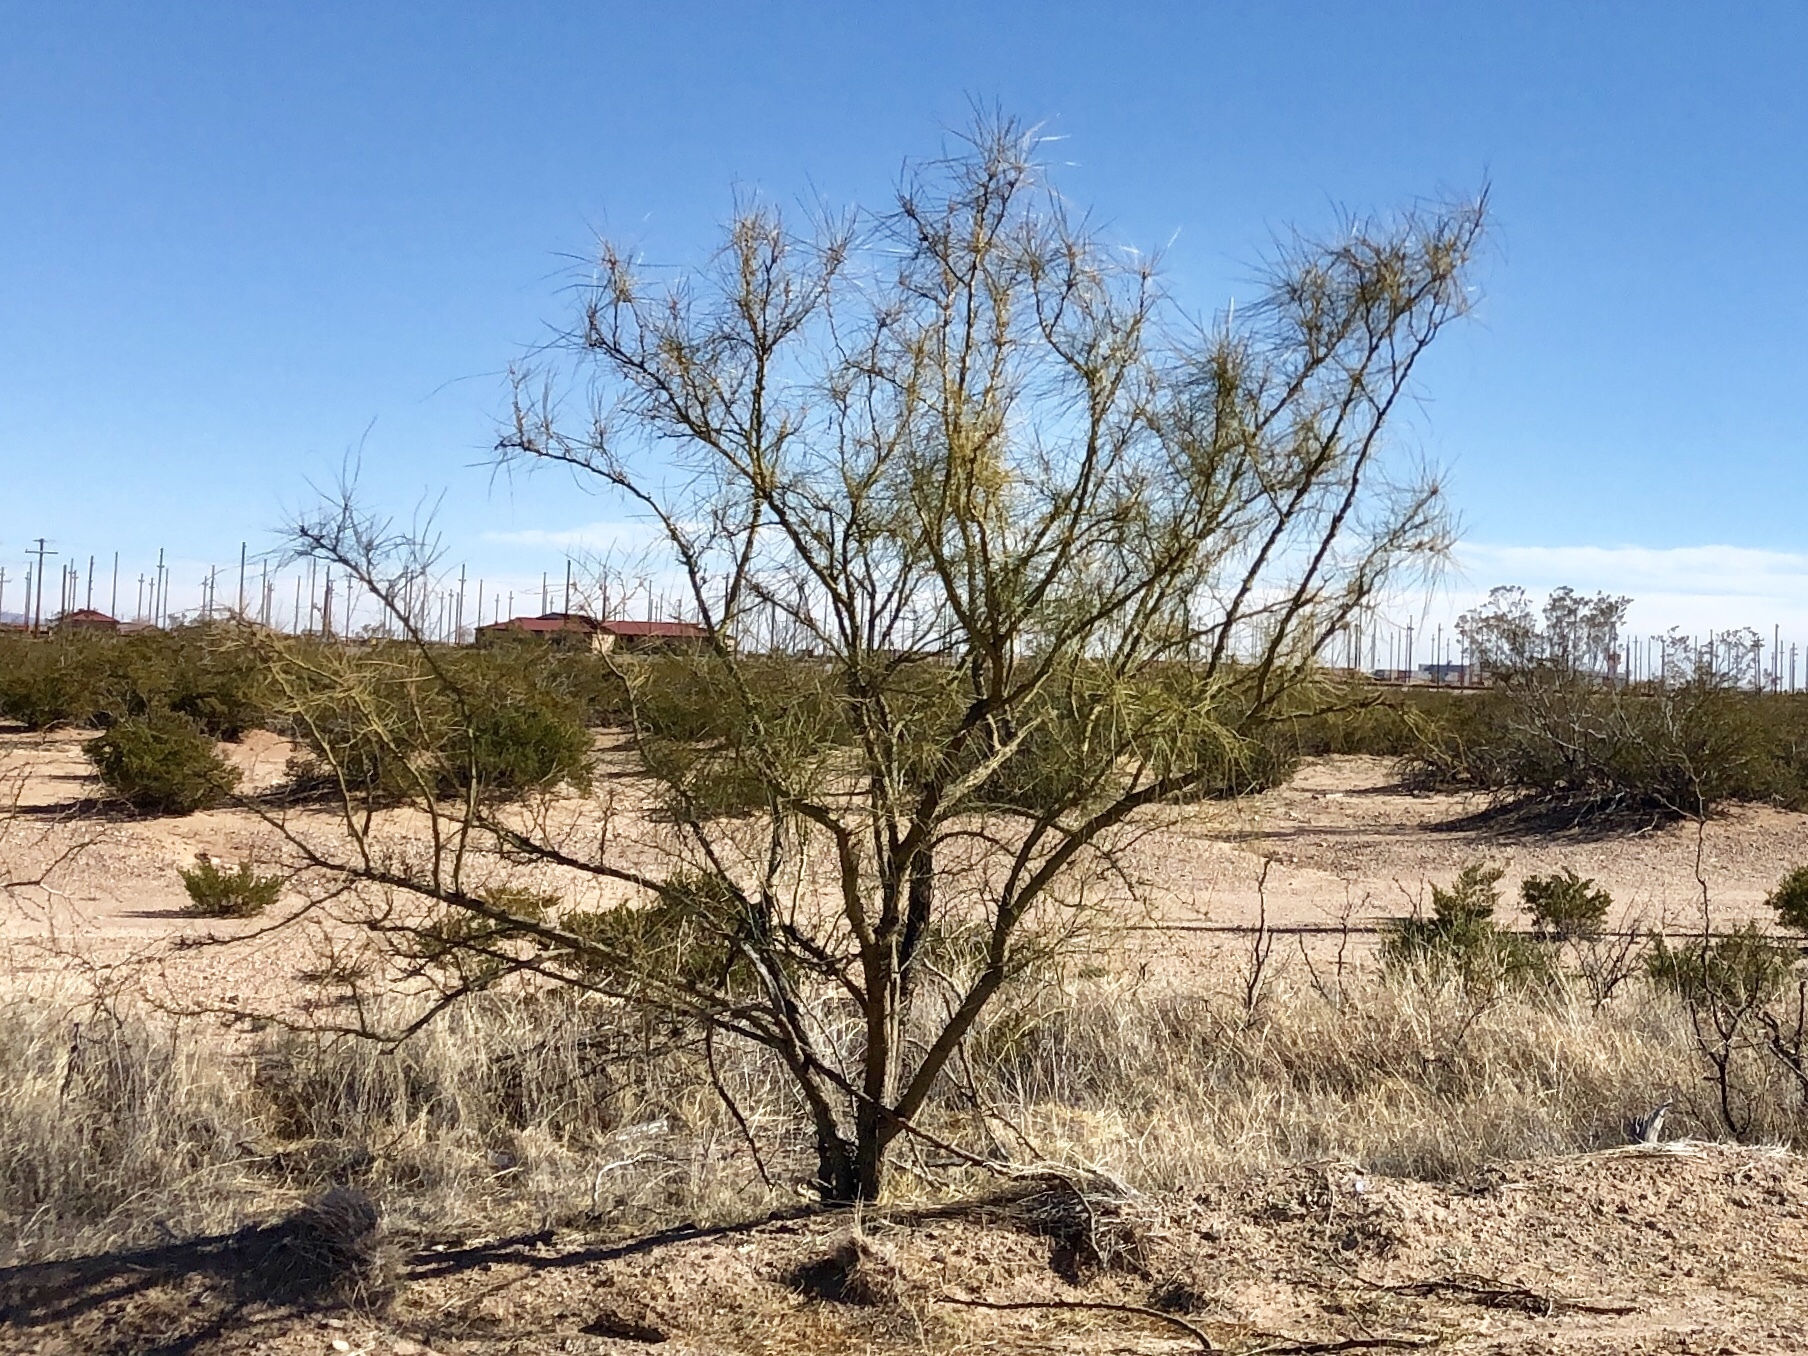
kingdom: Plantae
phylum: Tracheophyta
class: Magnoliopsida
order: Fabales
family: Fabaceae
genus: Parkinsonia
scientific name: Parkinsonia aculeata
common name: Jerusalem thorn
